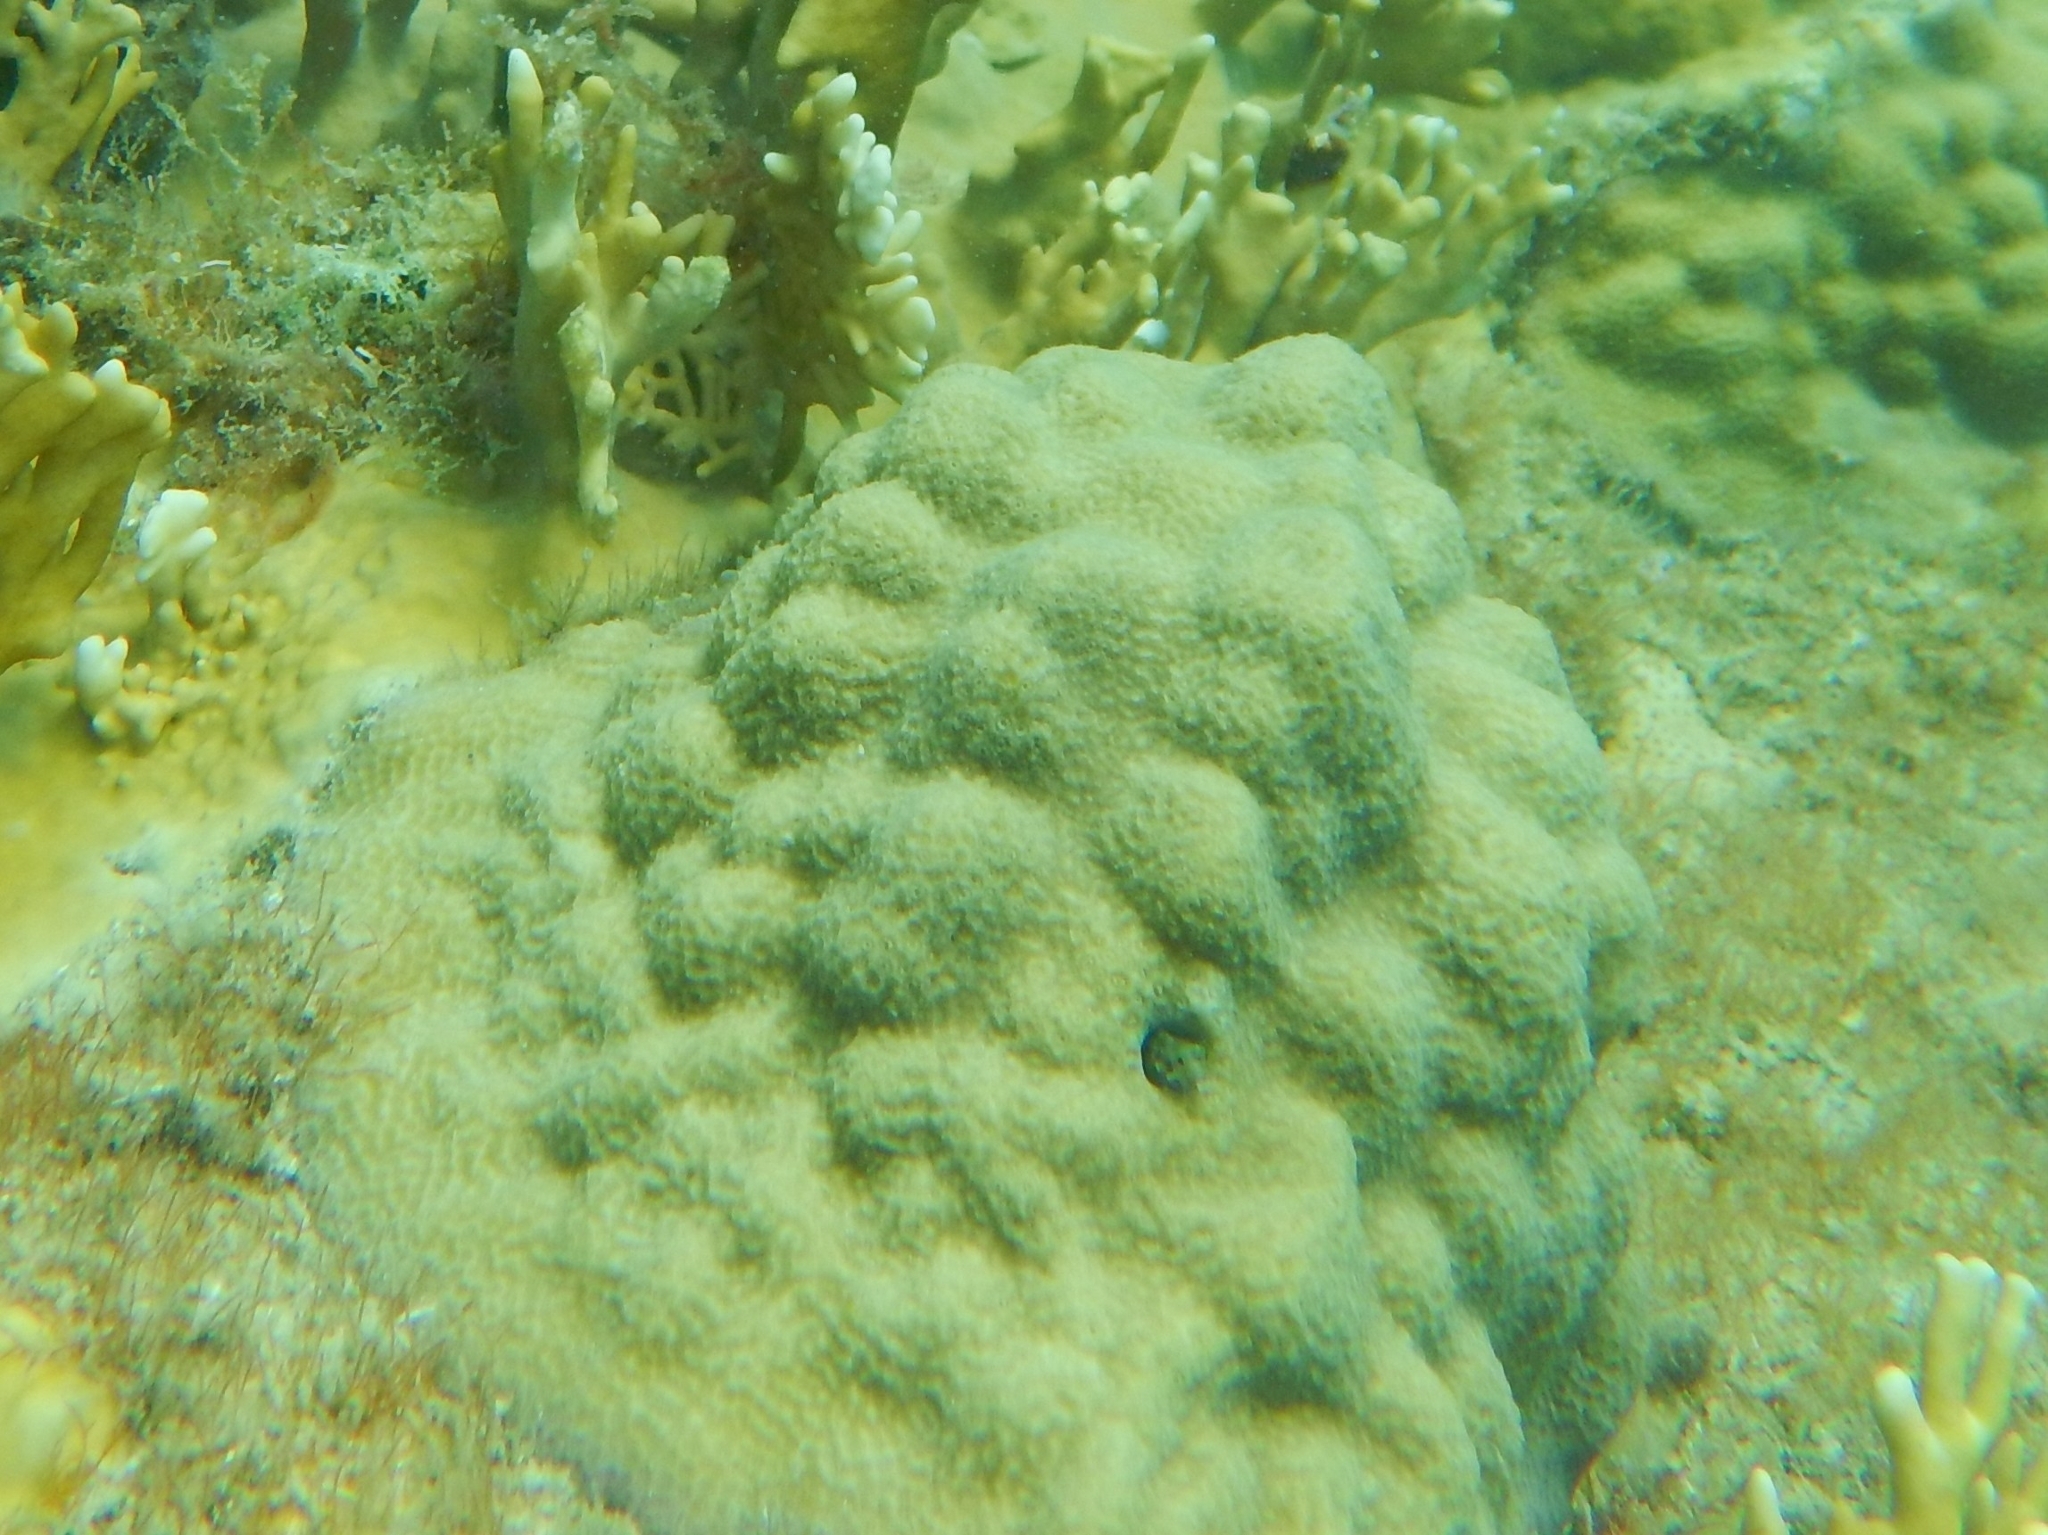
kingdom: Animalia
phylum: Cnidaria
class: Anthozoa
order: Scleractinia
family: Poritidae
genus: Porites
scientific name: Porites astreoides
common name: Mustard hill coral
